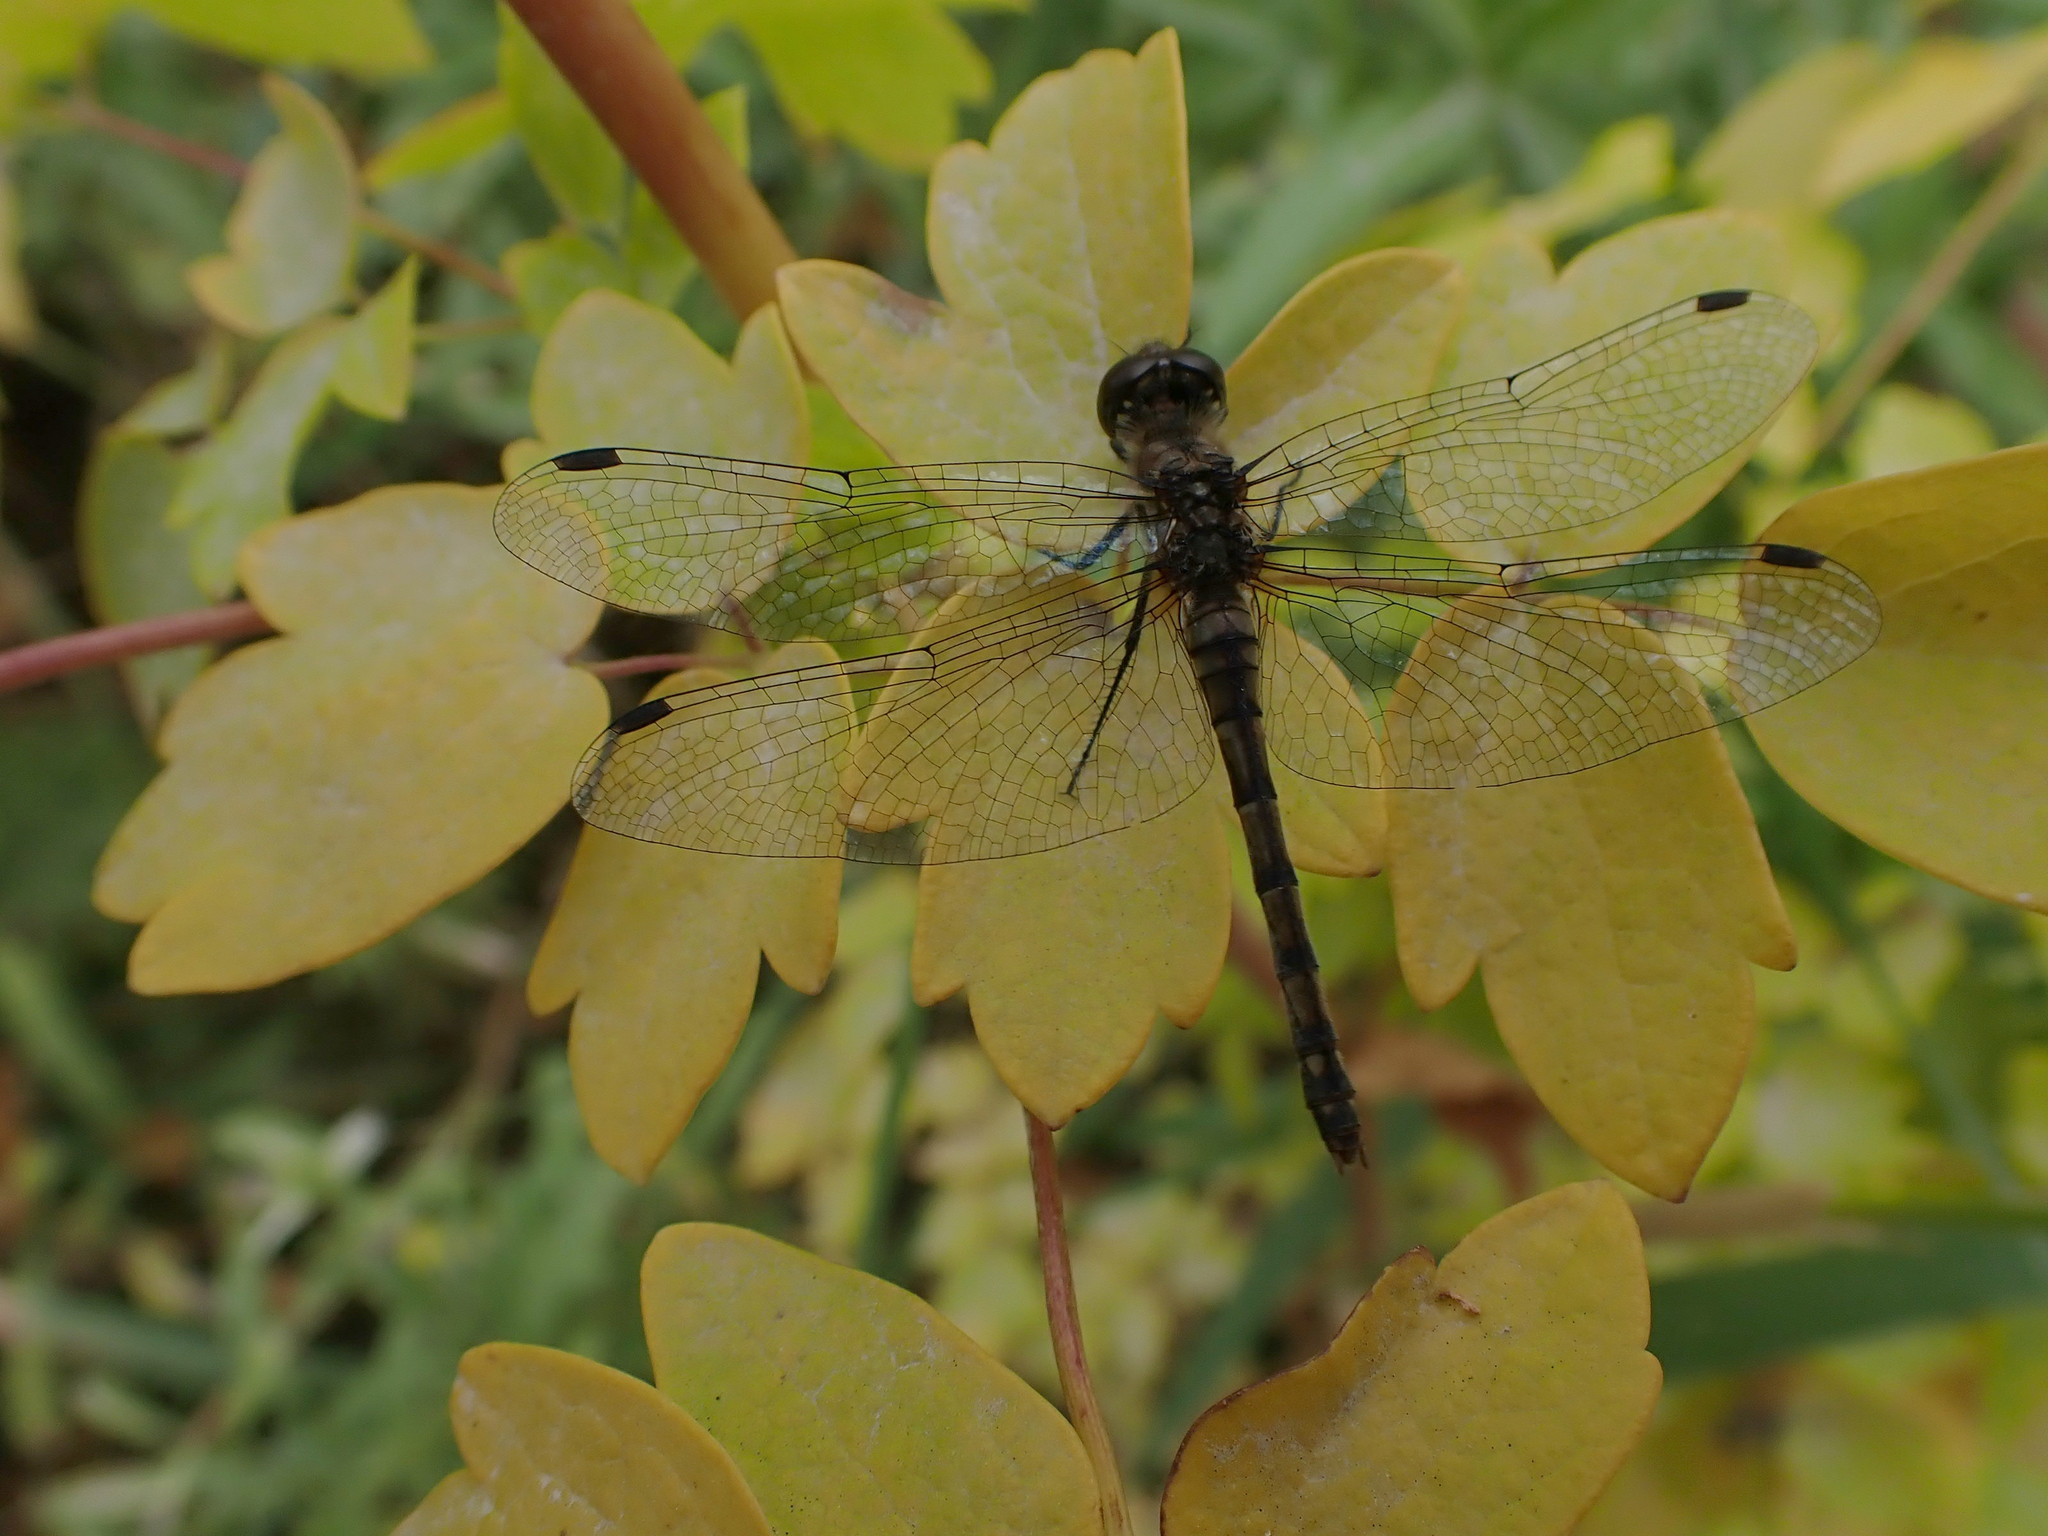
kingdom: Animalia
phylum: Arthropoda
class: Insecta
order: Odonata
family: Libellulidae
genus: Sympetrum
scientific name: Sympetrum danae
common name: Black darter
